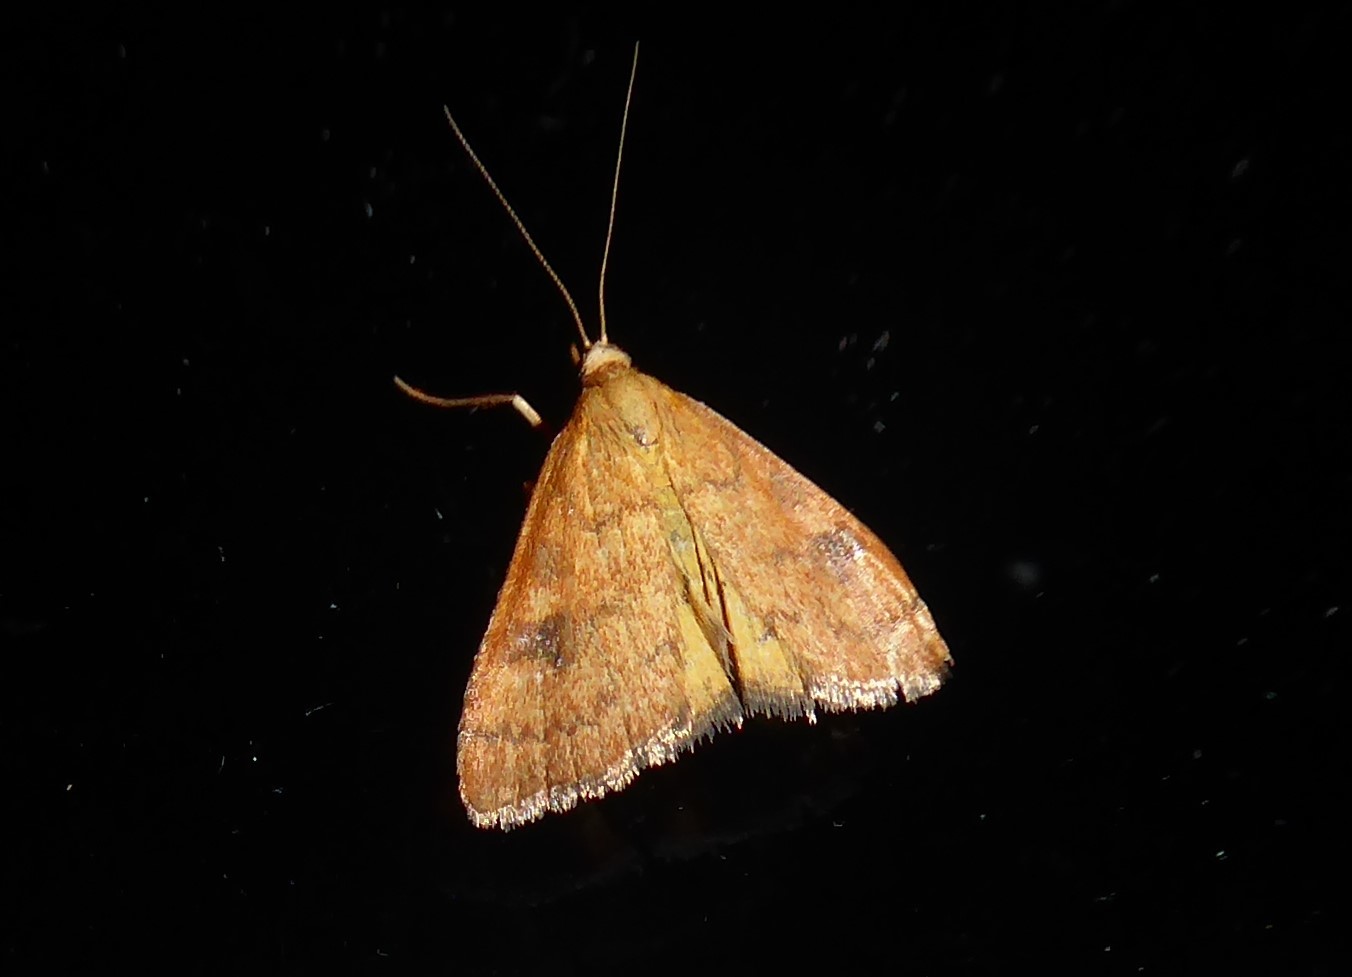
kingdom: Animalia
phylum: Arthropoda
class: Insecta
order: Lepidoptera
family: Crambidae
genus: Udea
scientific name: Udea Mnesictena flavidalis
